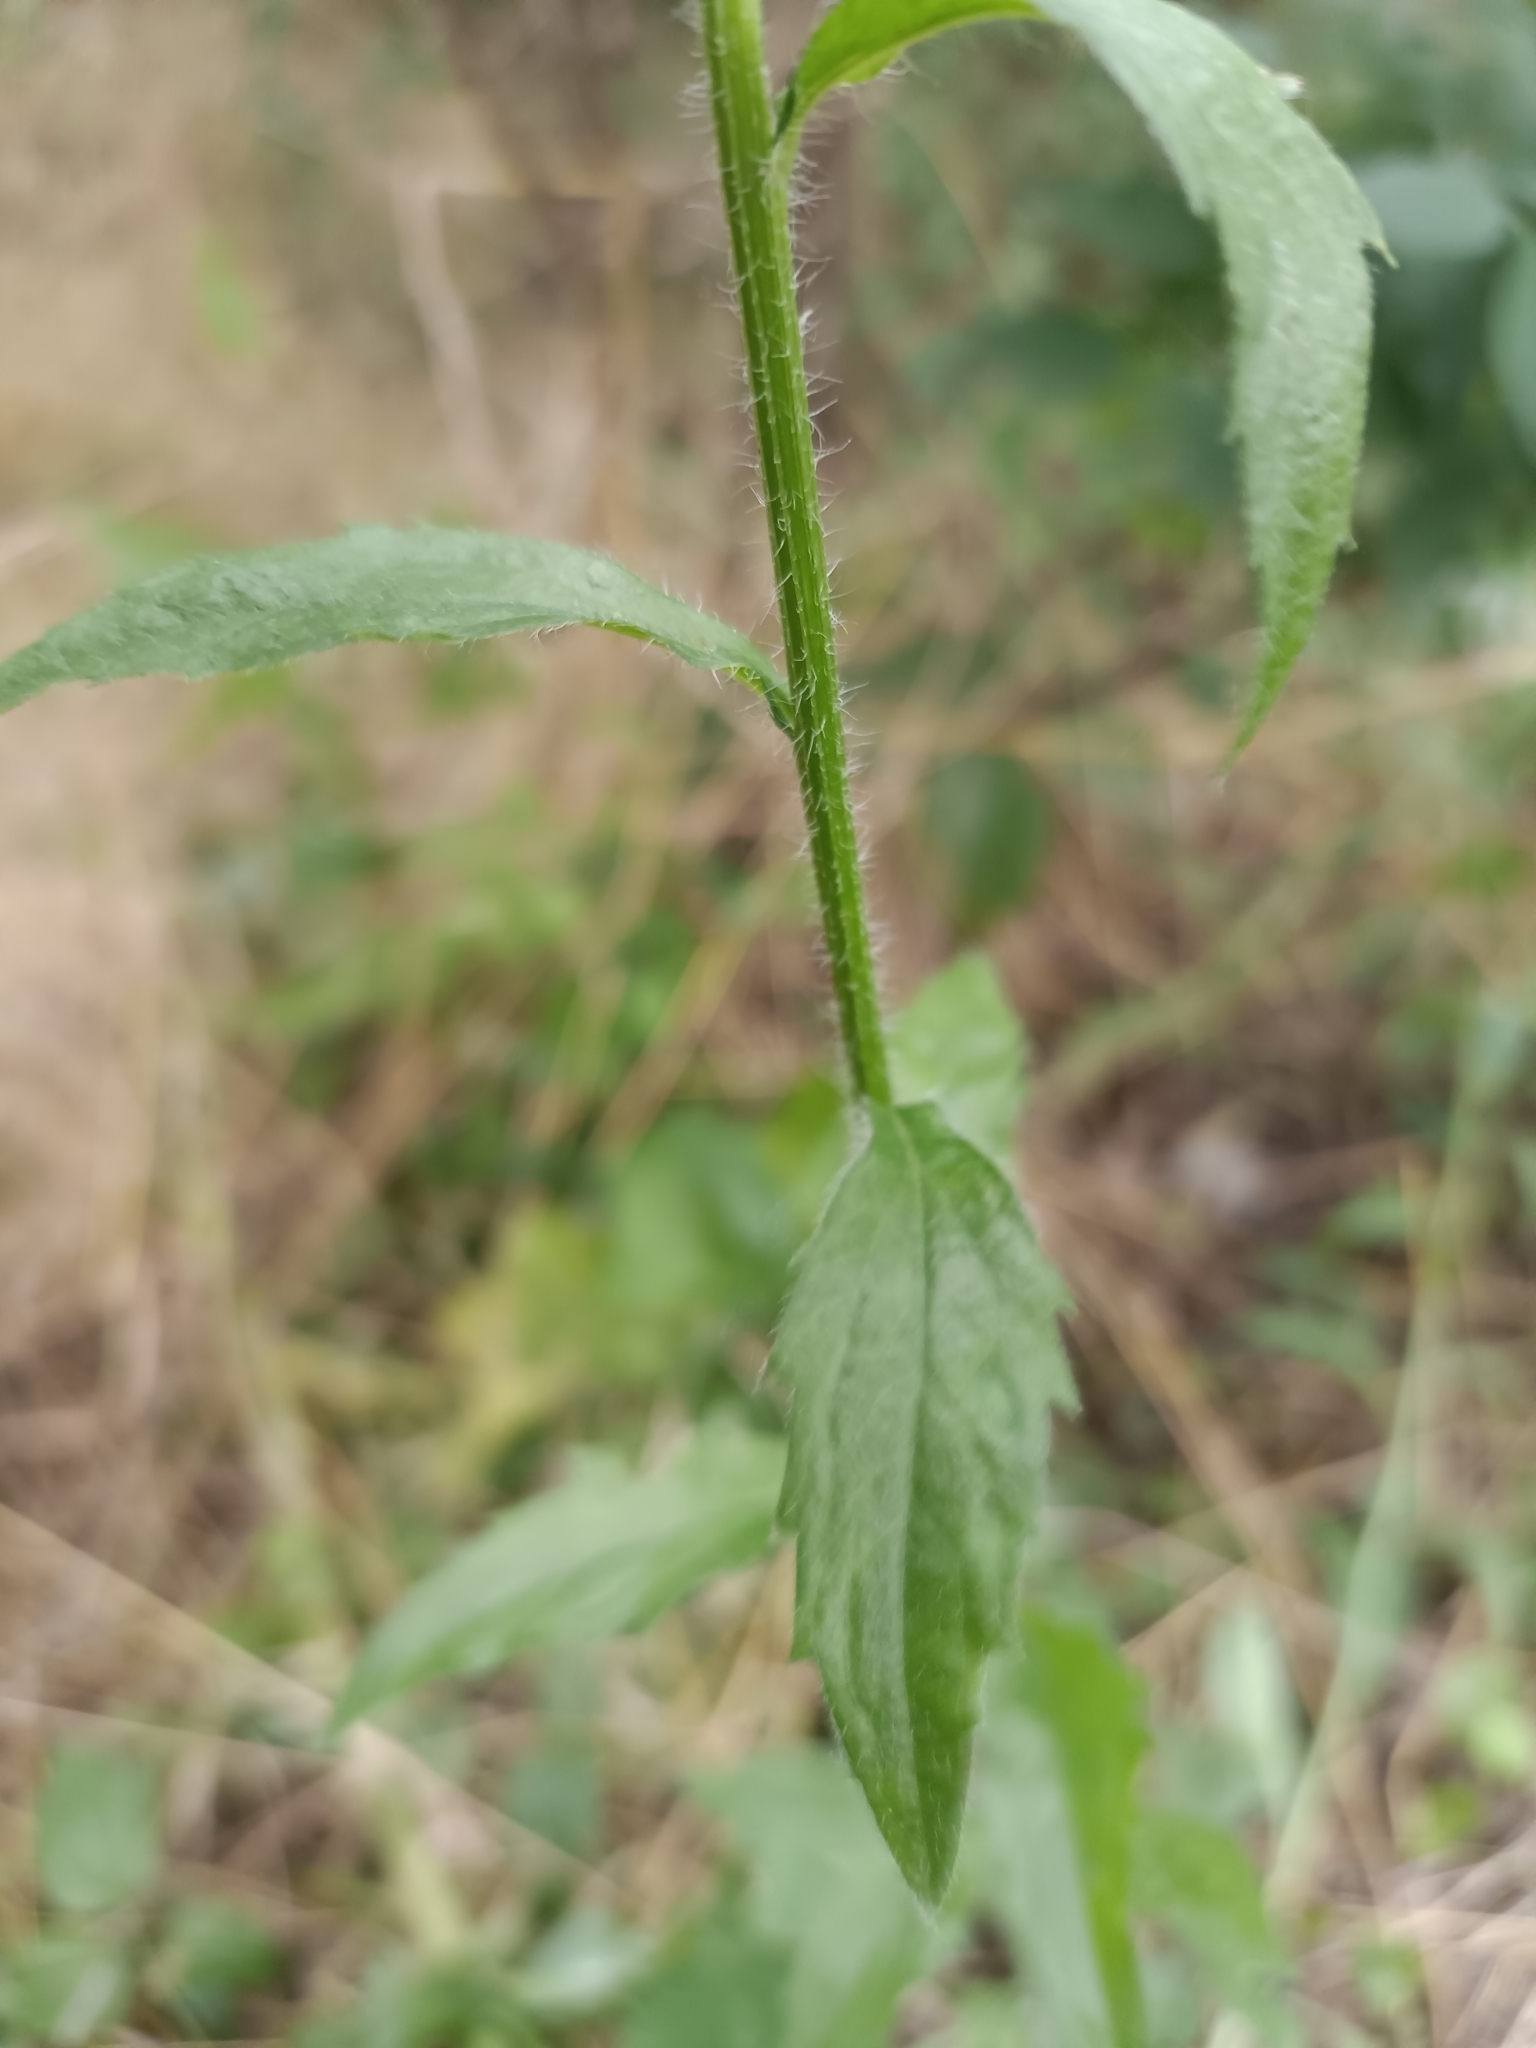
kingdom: Plantae
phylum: Tracheophyta
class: Magnoliopsida
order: Asterales
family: Asteraceae
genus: Erigeron
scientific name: Erigeron annuus
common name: Tall fleabane
